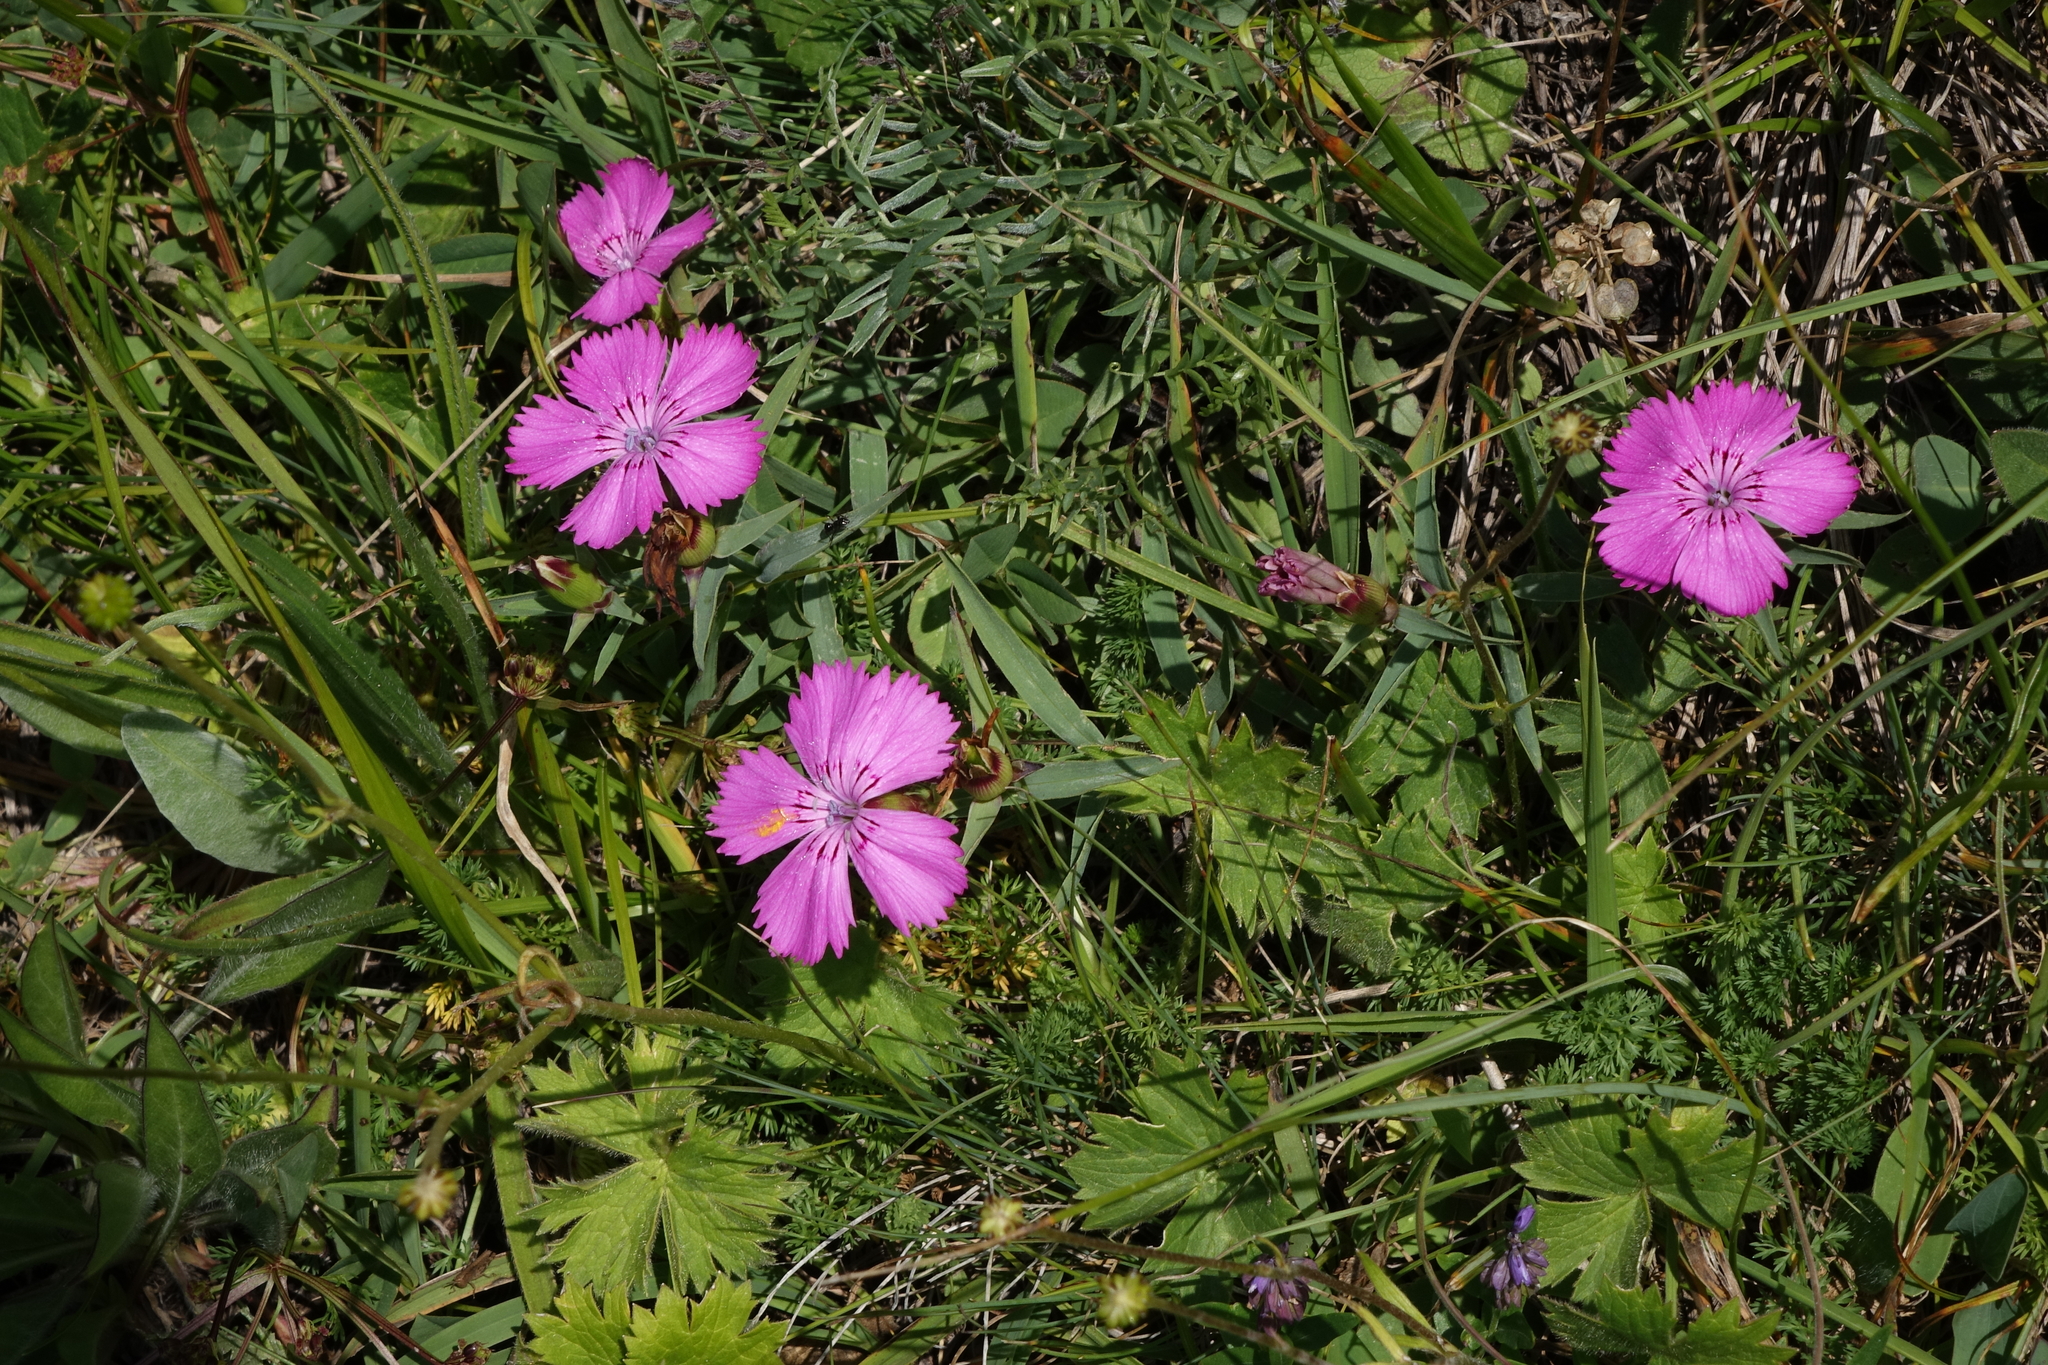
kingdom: Plantae
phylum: Tracheophyta
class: Magnoliopsida
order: Caryophyllales
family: Caryophyllaceae
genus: Dianthus
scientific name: Dianthus caucaseus
